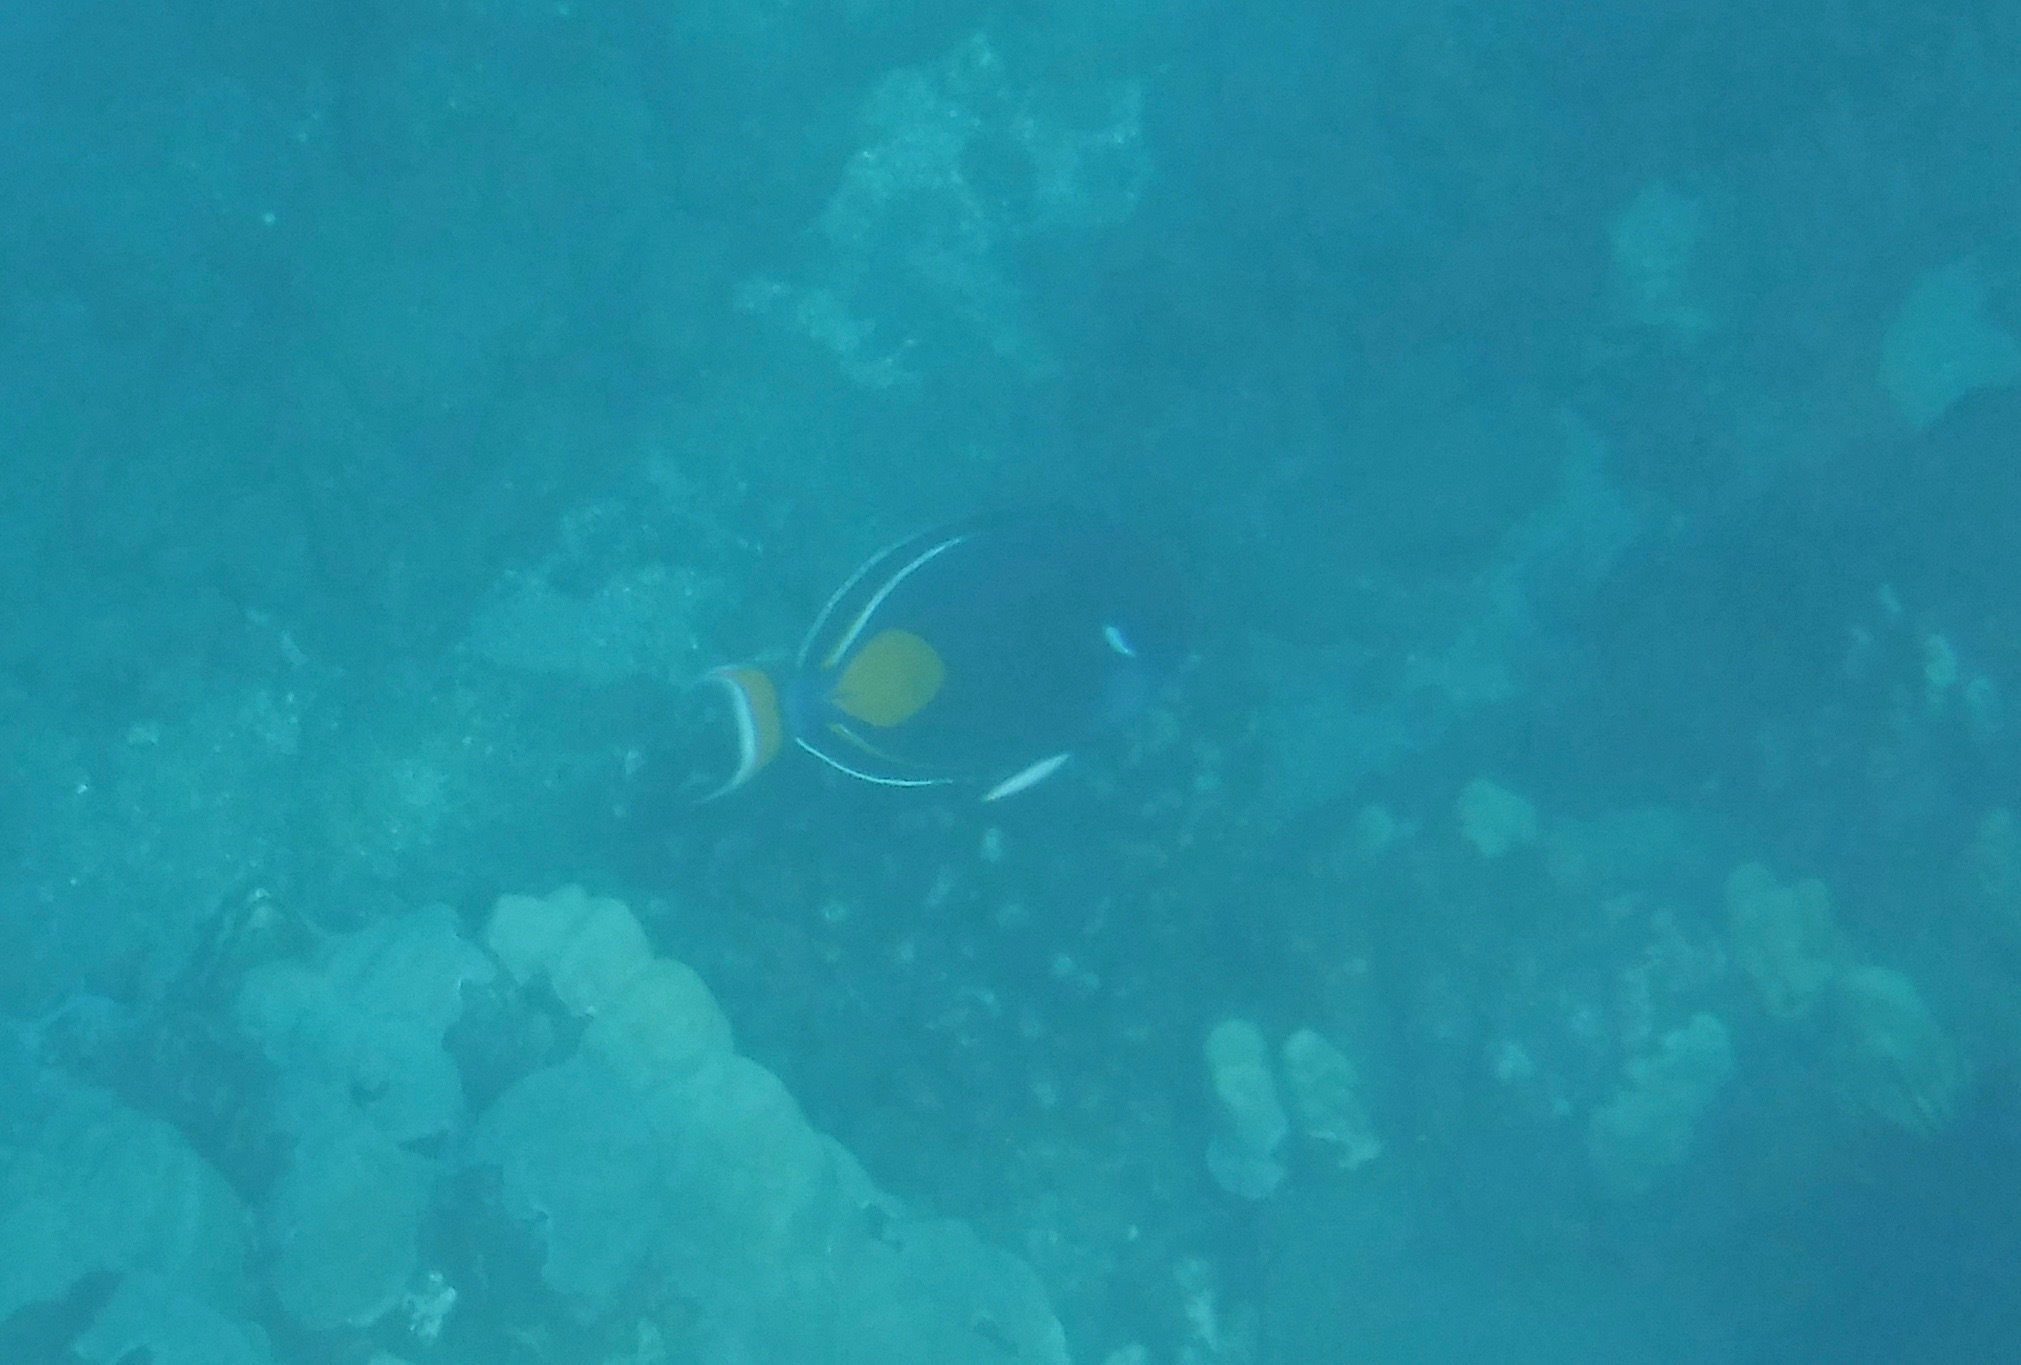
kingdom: Animalia
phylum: Chordata
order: Perciformes
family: Acanthuridae
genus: Acanthurus
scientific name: Acanthurus achilles
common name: Achilles tang
